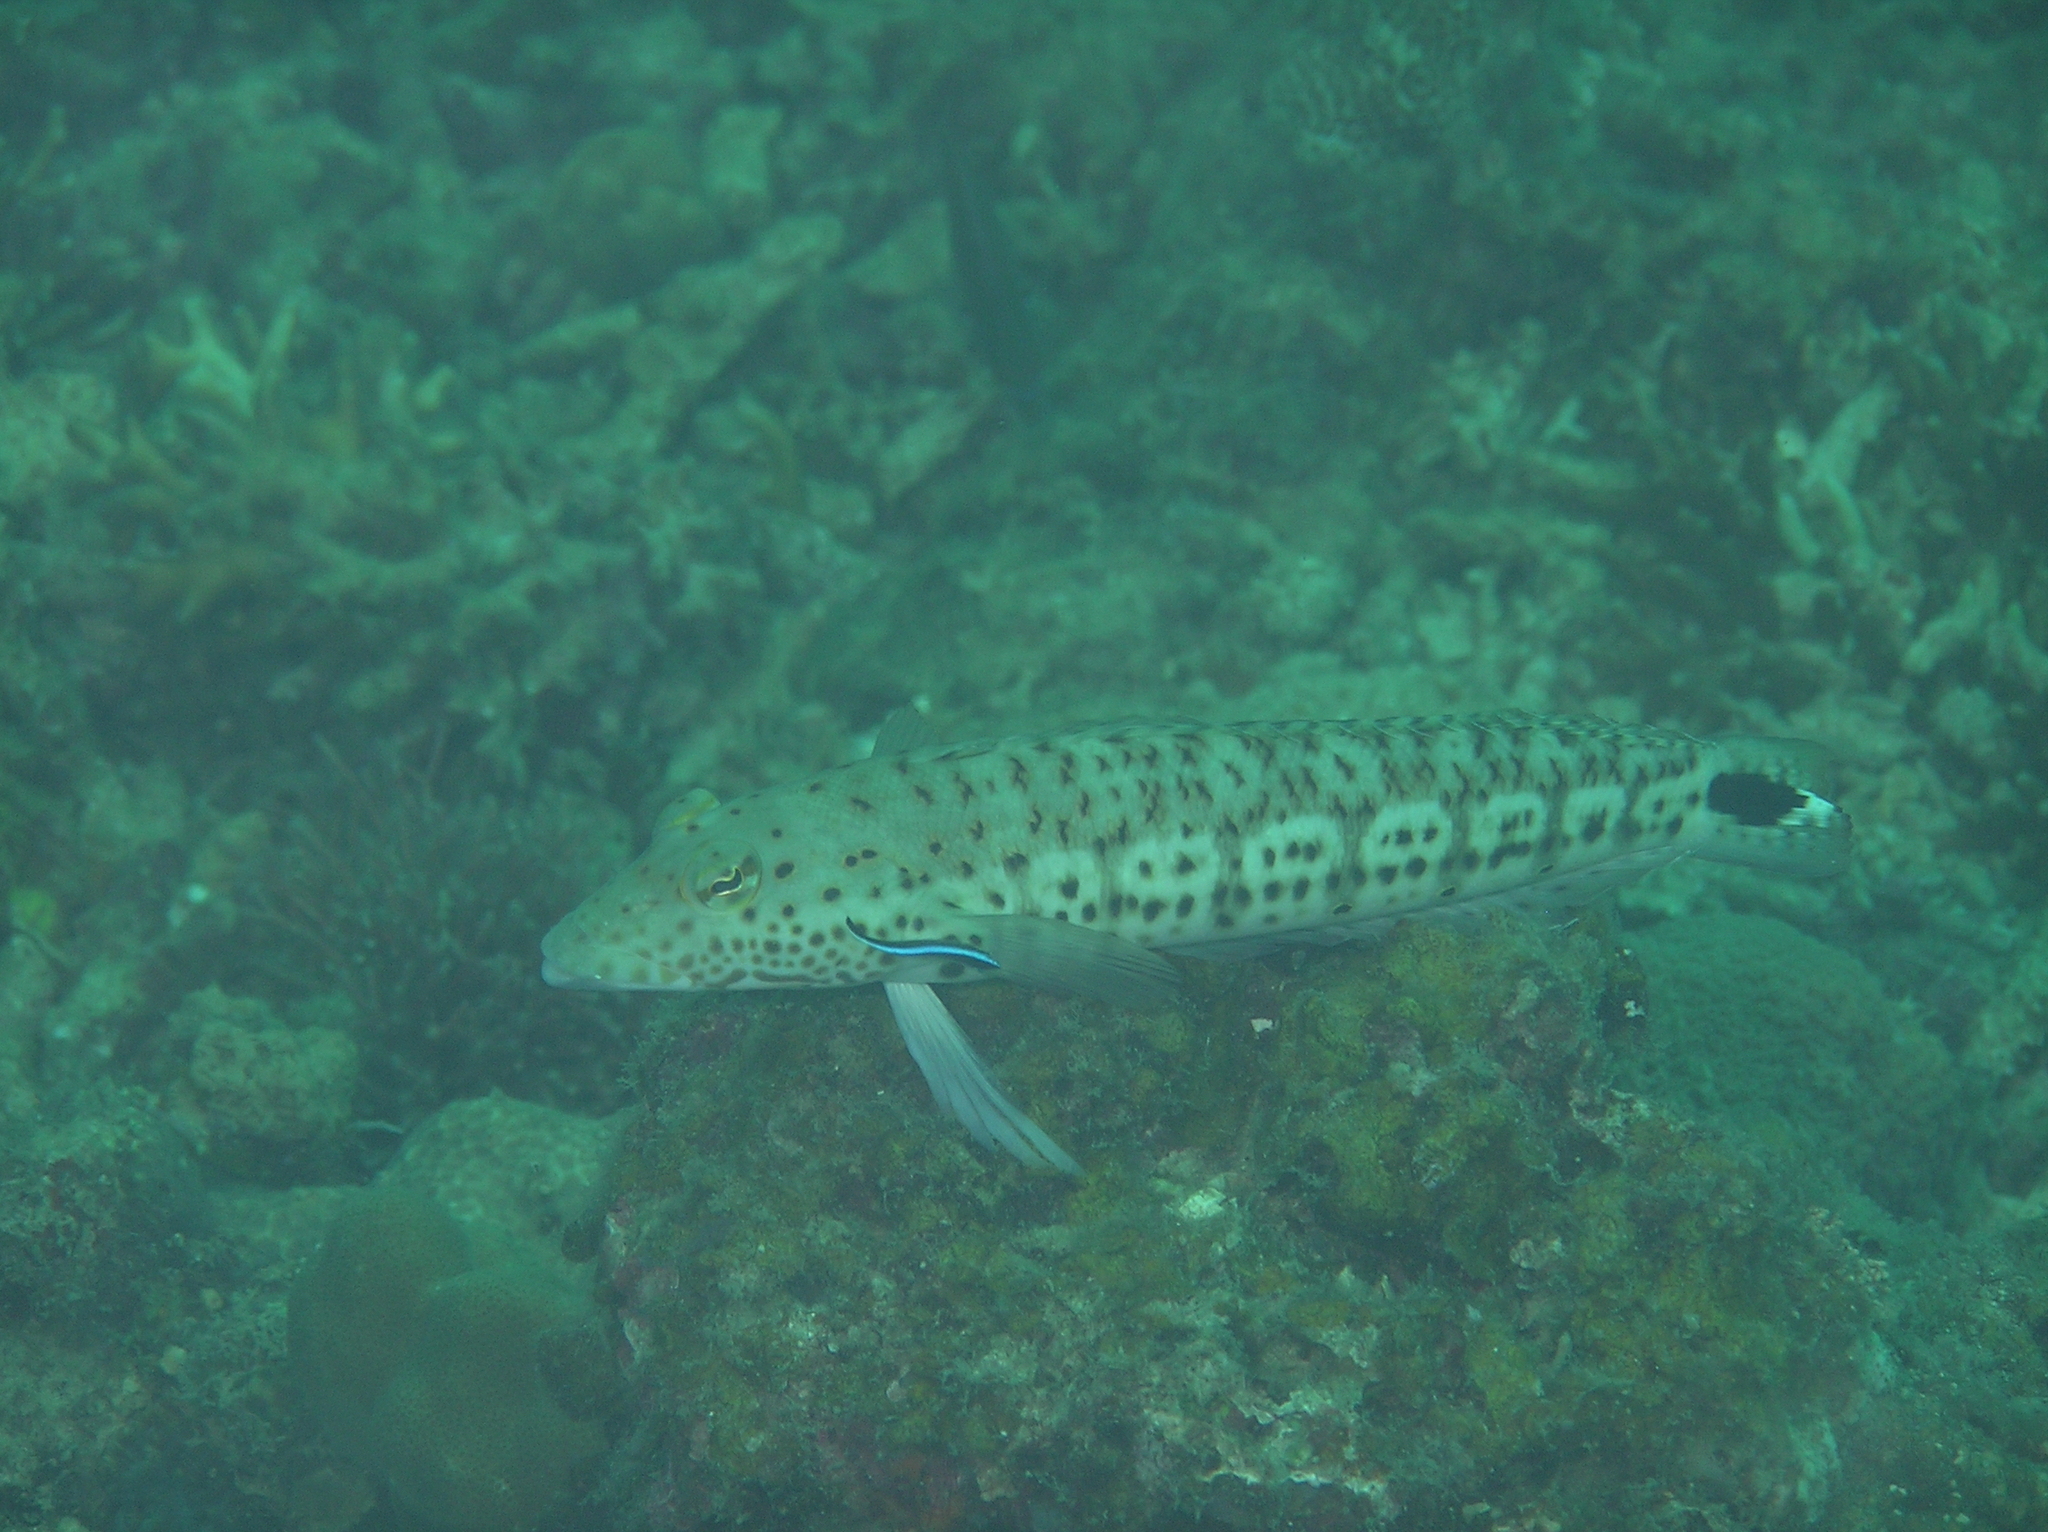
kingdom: Animalia
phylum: Chordata
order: Perciformes
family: Pinguipedidae
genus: Parapercis
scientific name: Parapercis pacifica
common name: Speckled sandperch
